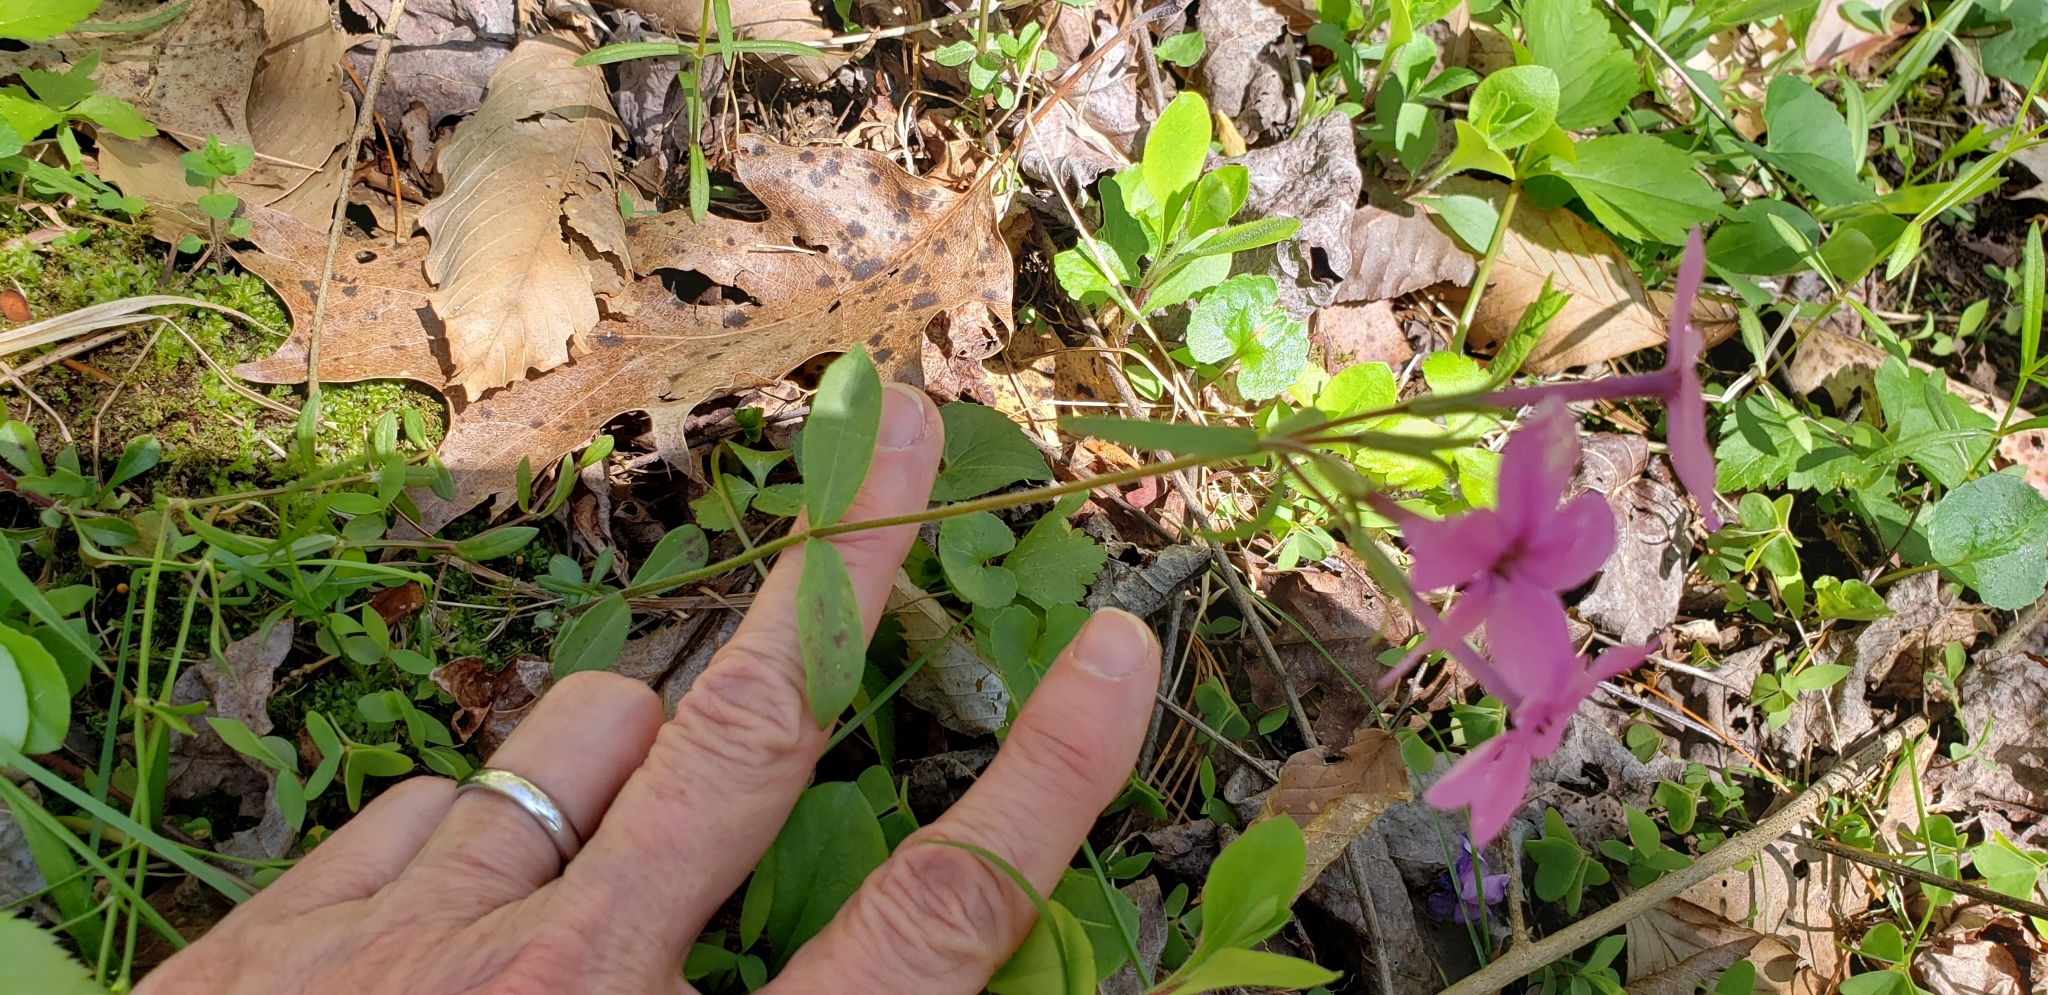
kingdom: Plantae
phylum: Tracheophyta
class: Magnoliopsida
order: Ericales
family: Polemoniaceae
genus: Phlox
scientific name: Phlox stolonifera
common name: Creeping phlox
